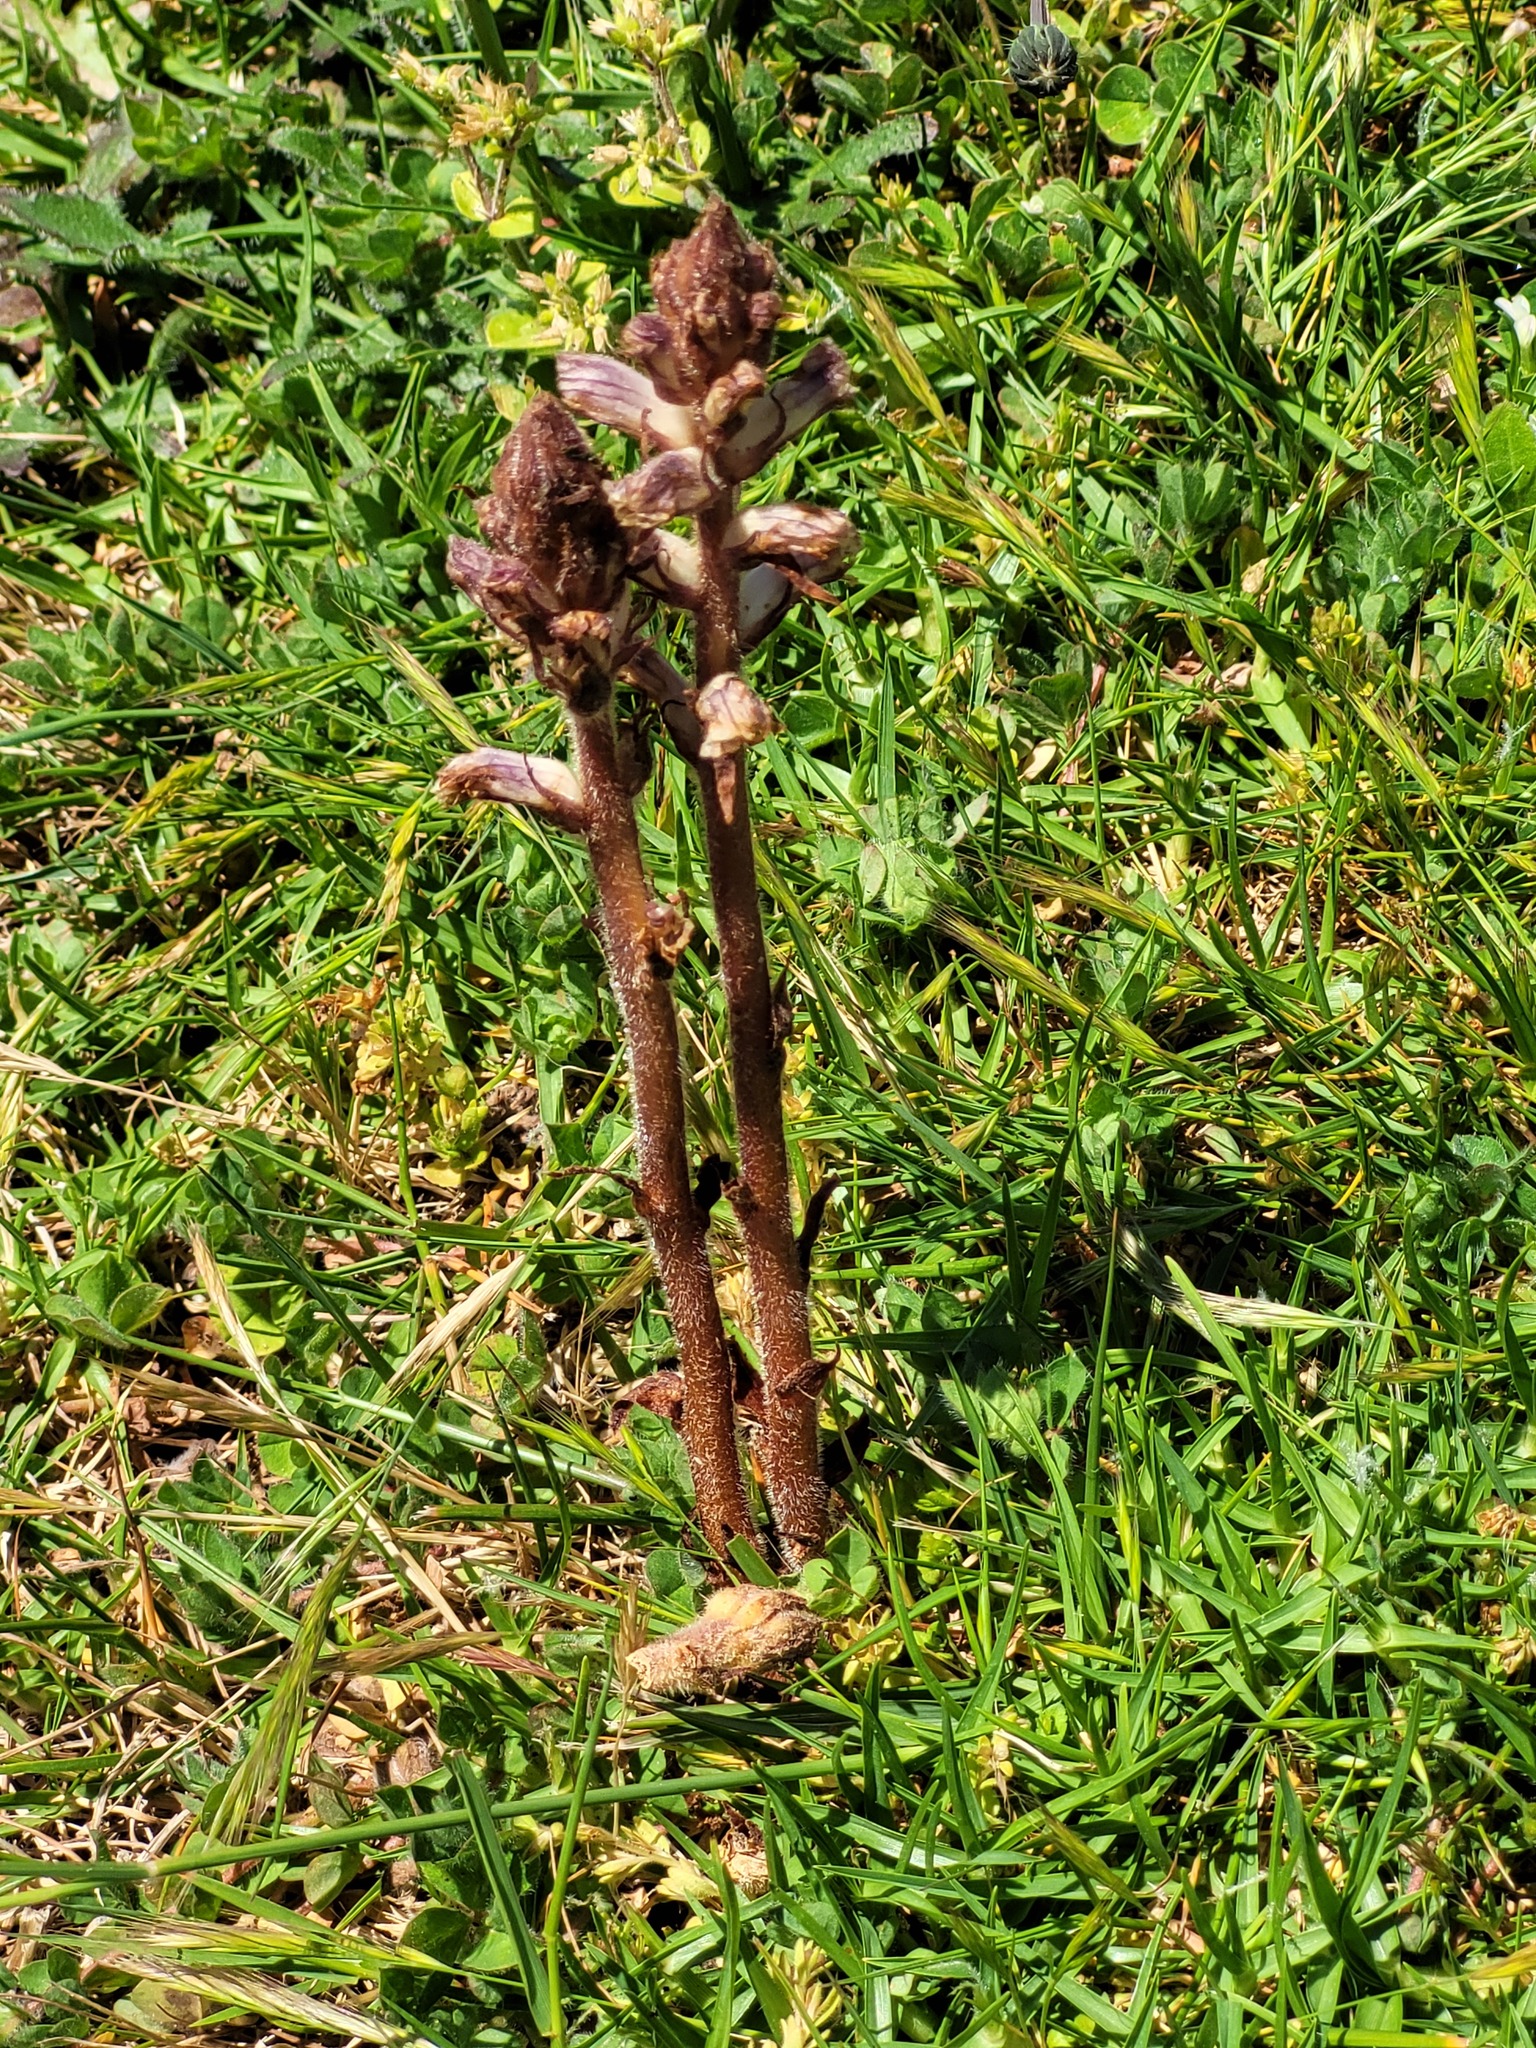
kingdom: Plantae
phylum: Tracheophyta
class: Magnoliopsida
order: Lamiales
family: Orobanchaceae
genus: Orobanche
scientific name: Orobanche minor
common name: Common broomrape
